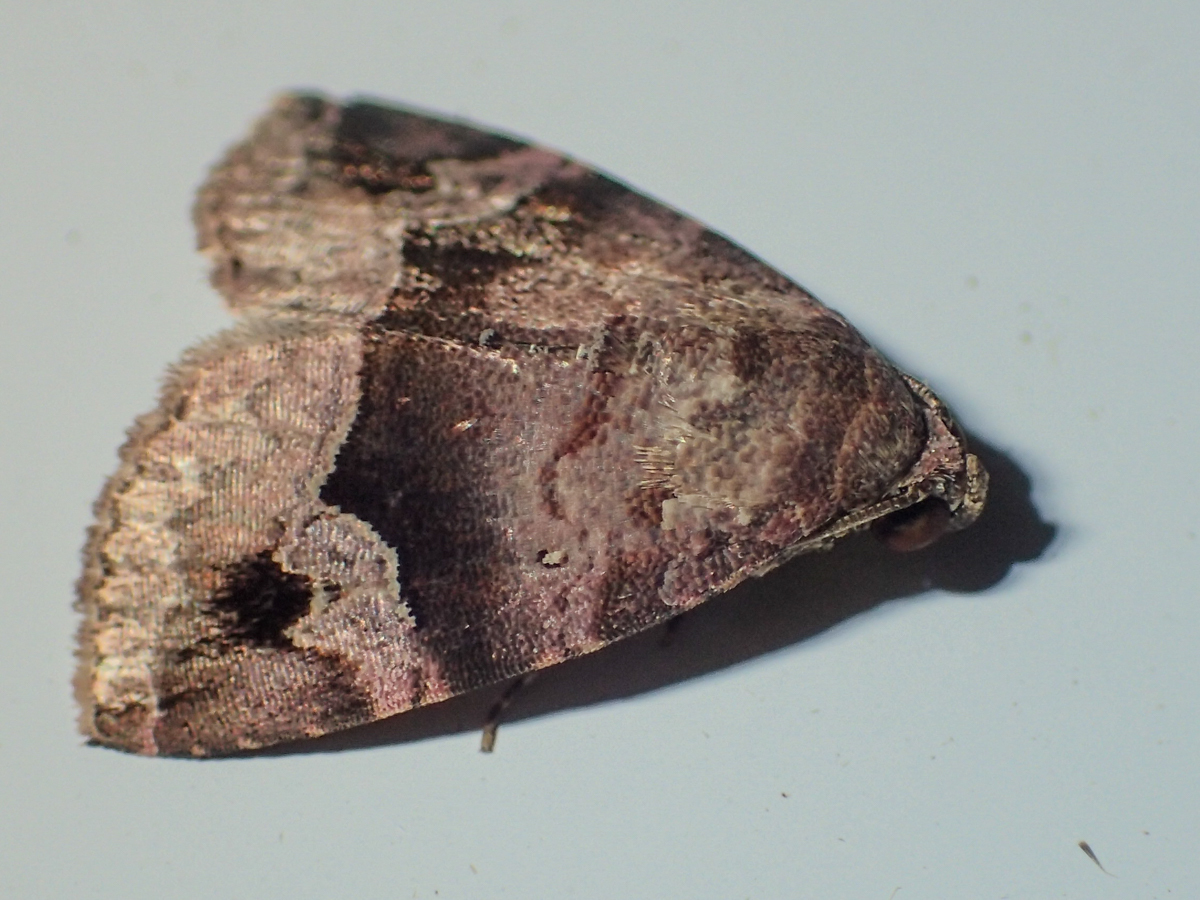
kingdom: Animalia
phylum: Arthropoda
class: Insecta
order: Lepidoptera
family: Noctuidae
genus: Ozarba
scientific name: Ozarba brunnea
